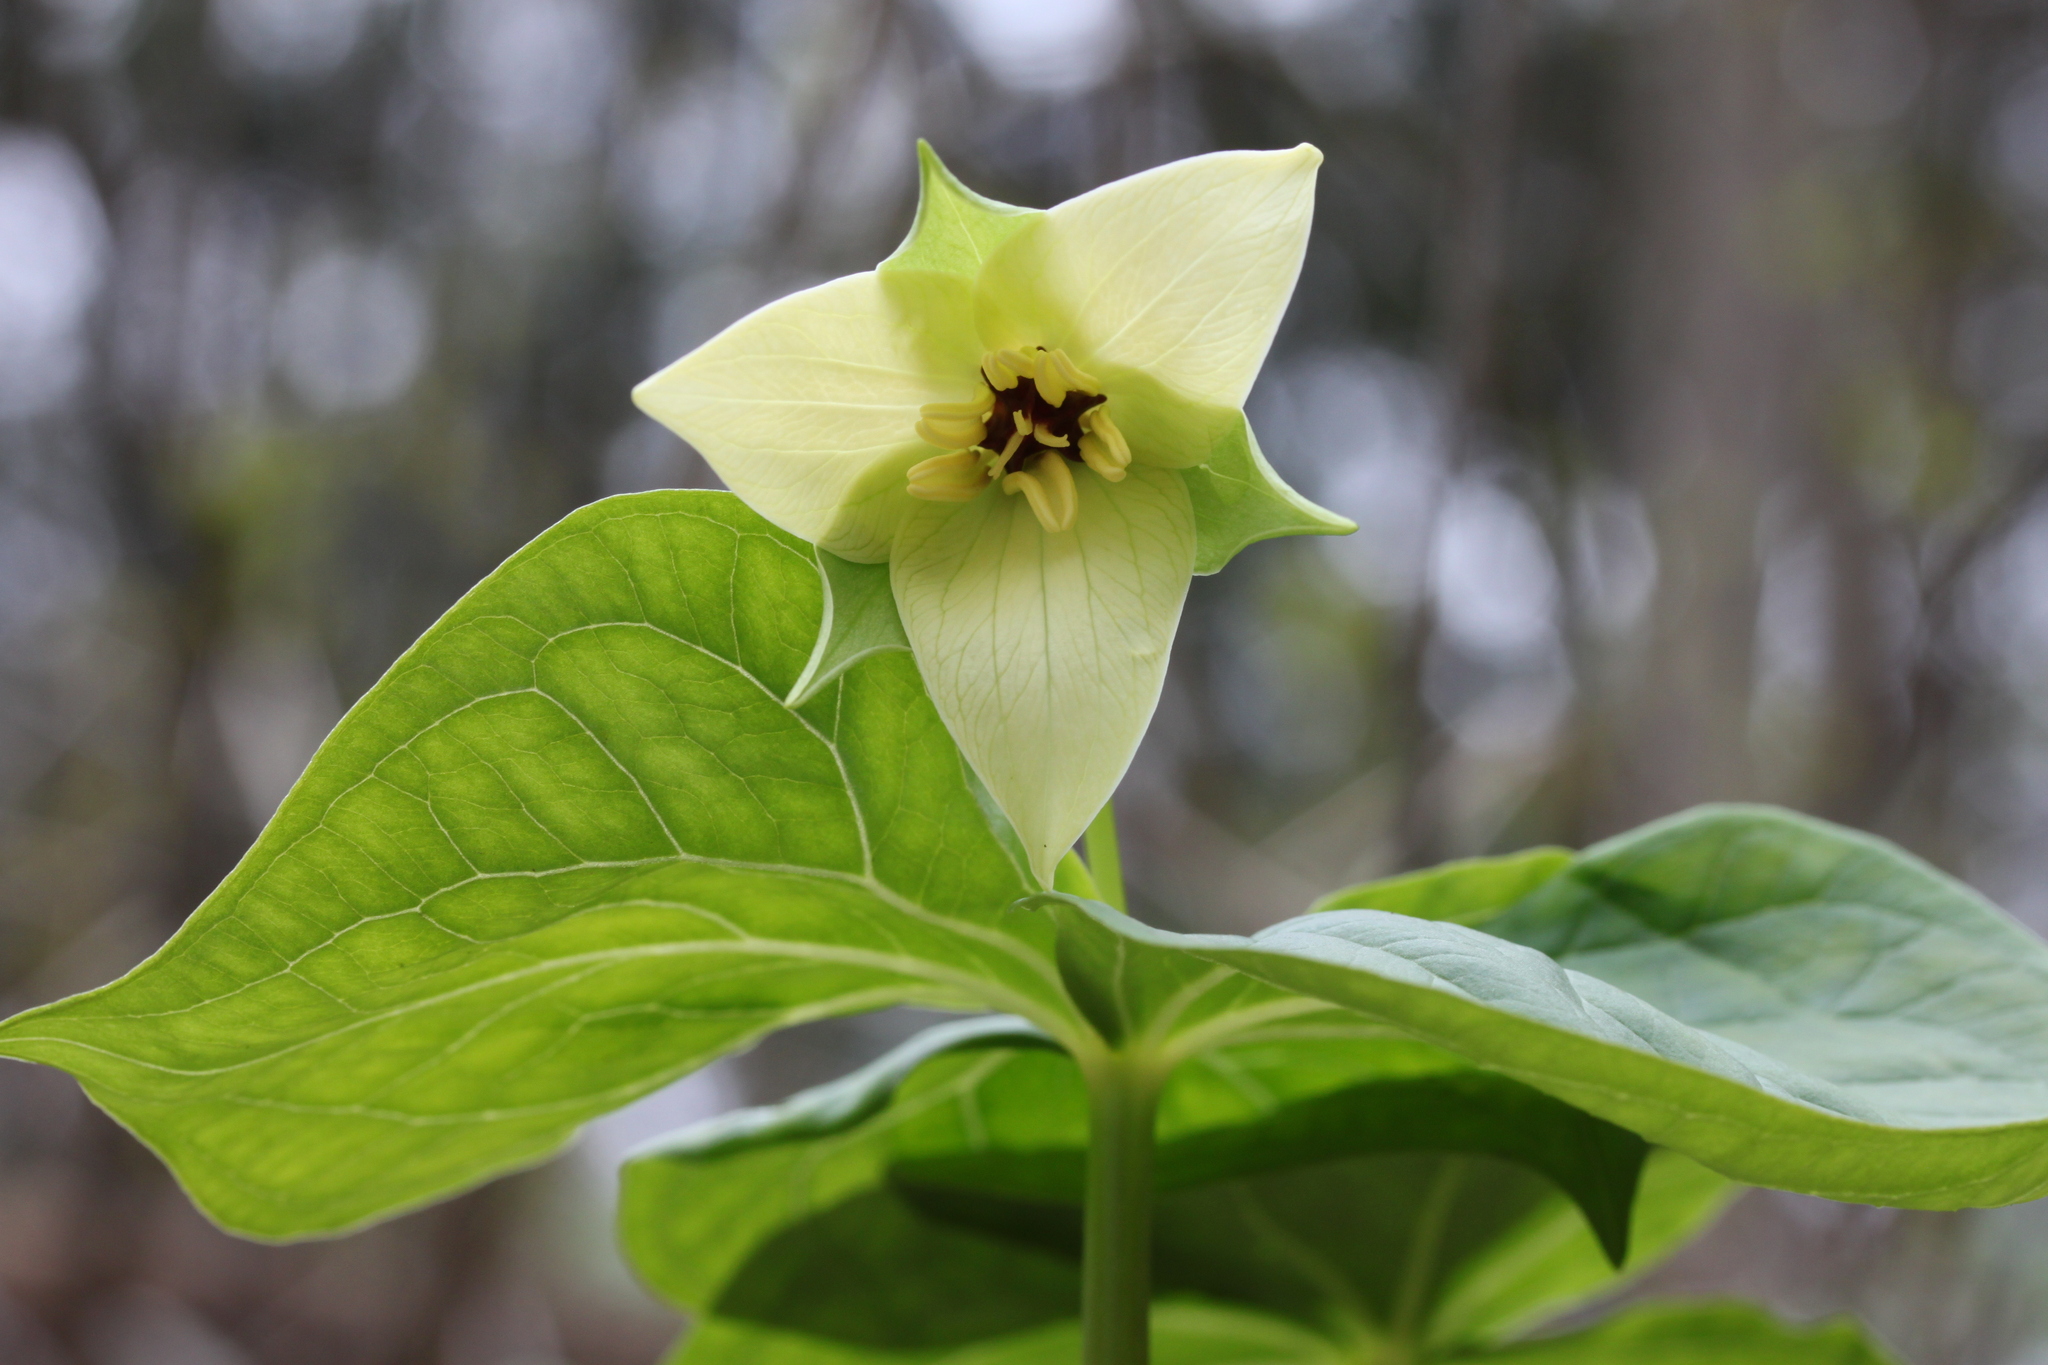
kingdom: Plantae
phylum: Tracheophyta
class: Liliopsida
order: Liliales
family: Melanthiaceae
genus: Trillium
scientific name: Trillium erectum
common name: Purple trillium
